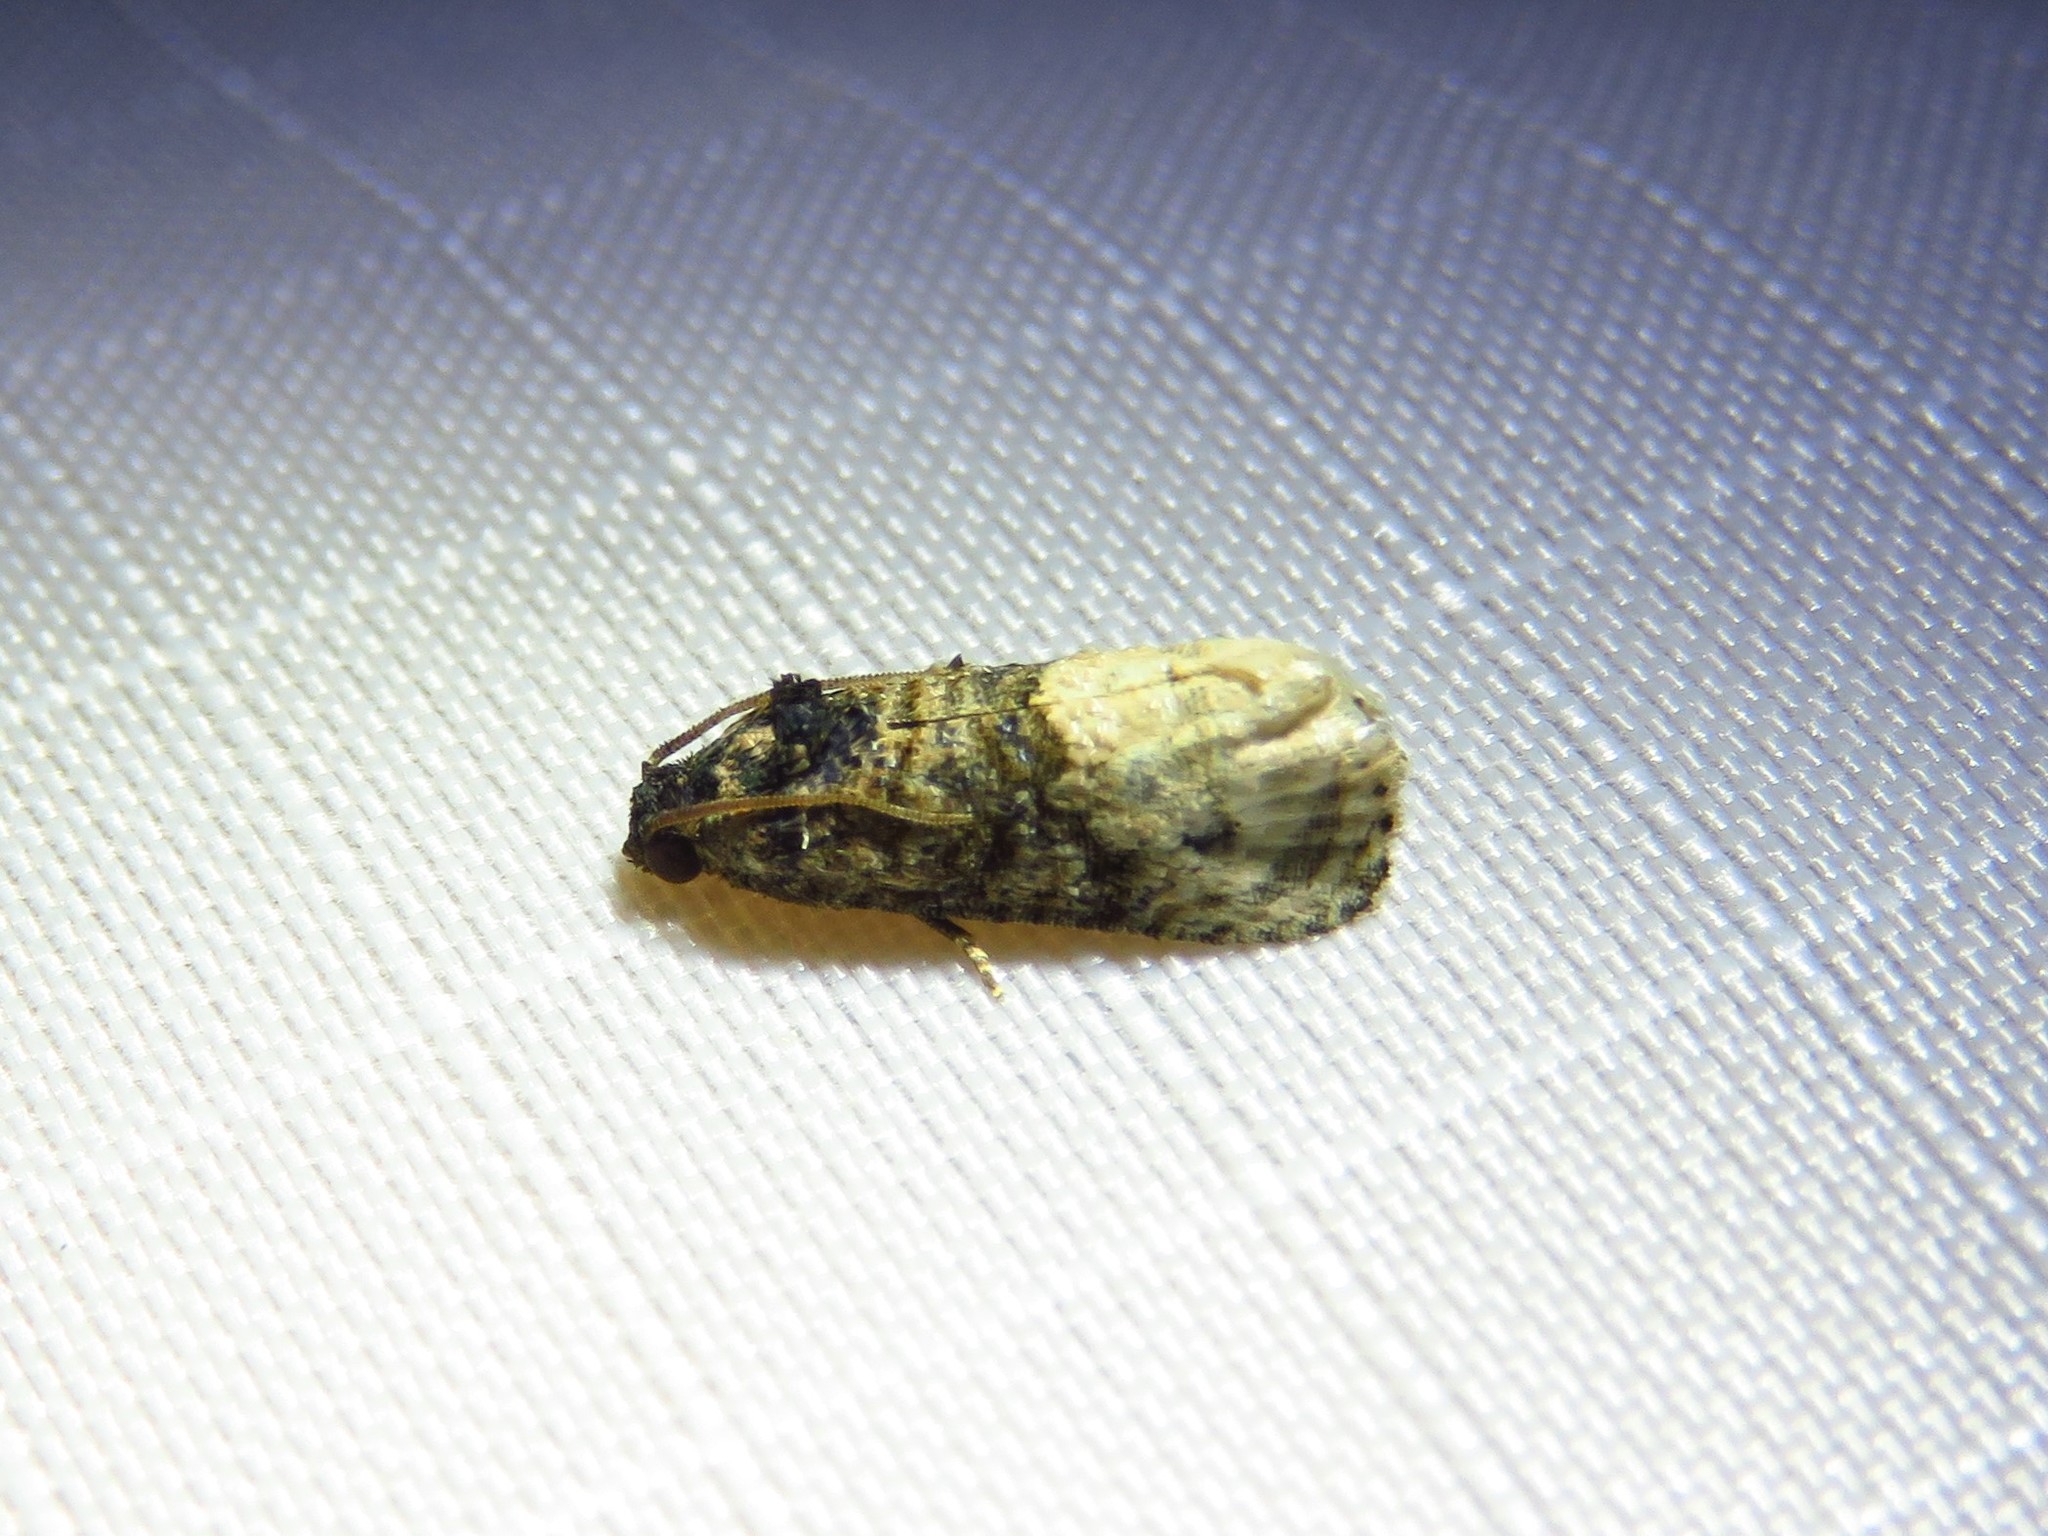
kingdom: Animalia
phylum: Arthropoda
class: Insecta
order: Lepidoptera
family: Tortricidae
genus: Ecdytolopha
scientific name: Ecdytolopha mana
